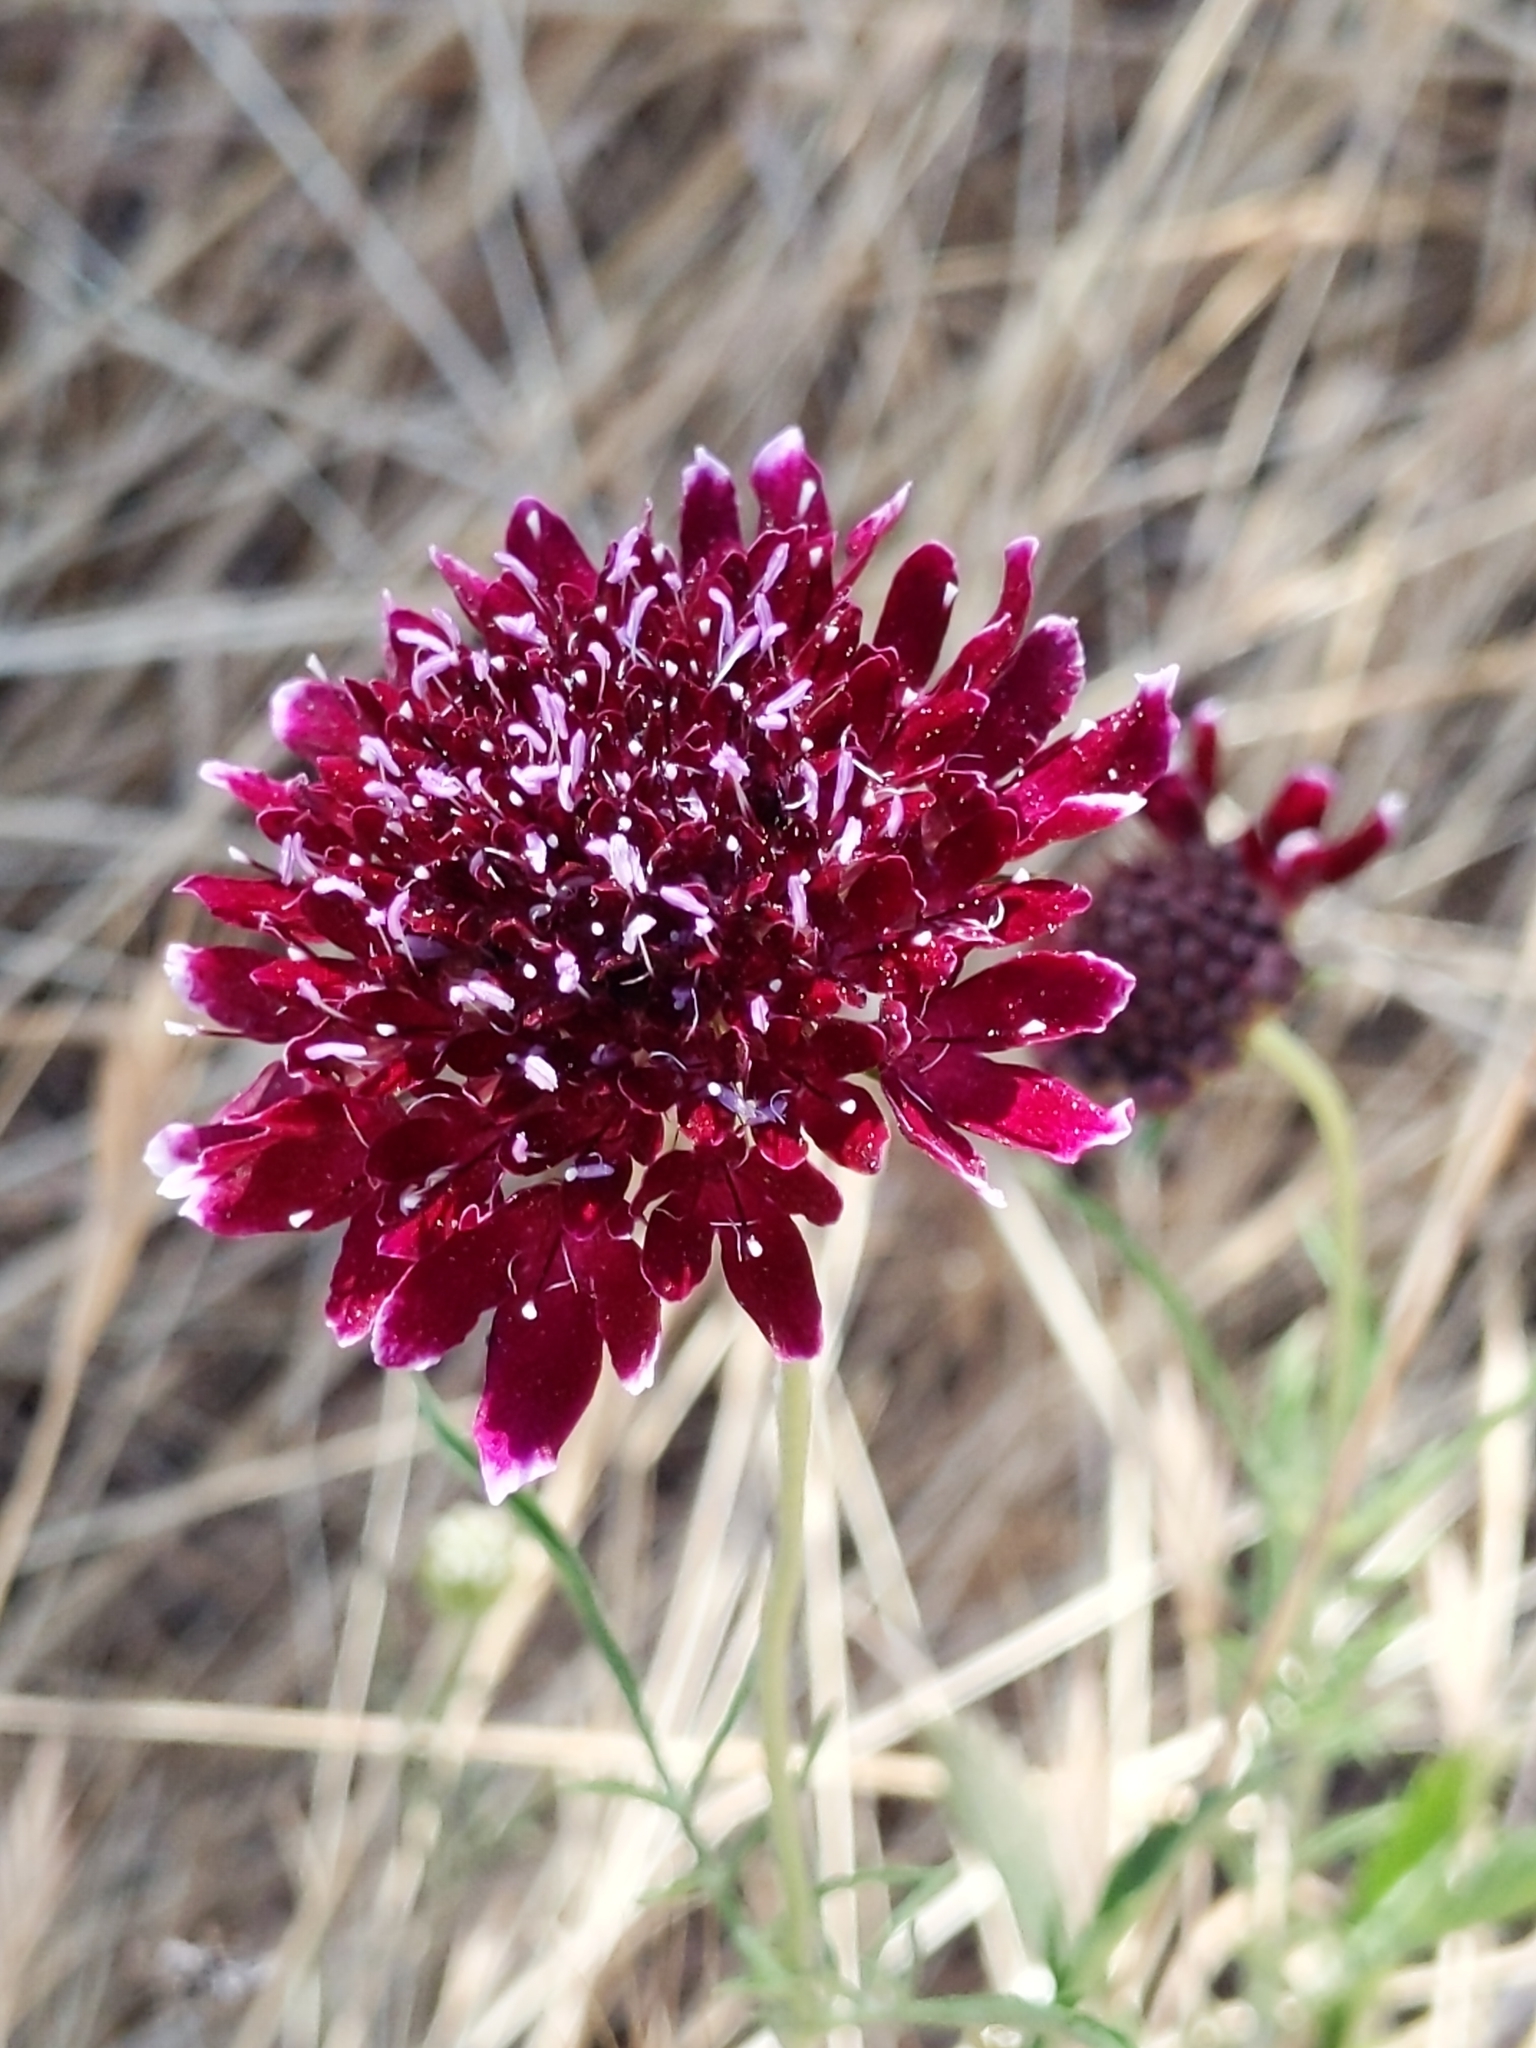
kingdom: Plantae
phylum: Tracheophyta
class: Magnoliopsida
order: Dipsacales
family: Caprifoliaceae
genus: Sixalix
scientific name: Sixalix atropurpurea
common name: Sweet scabious
